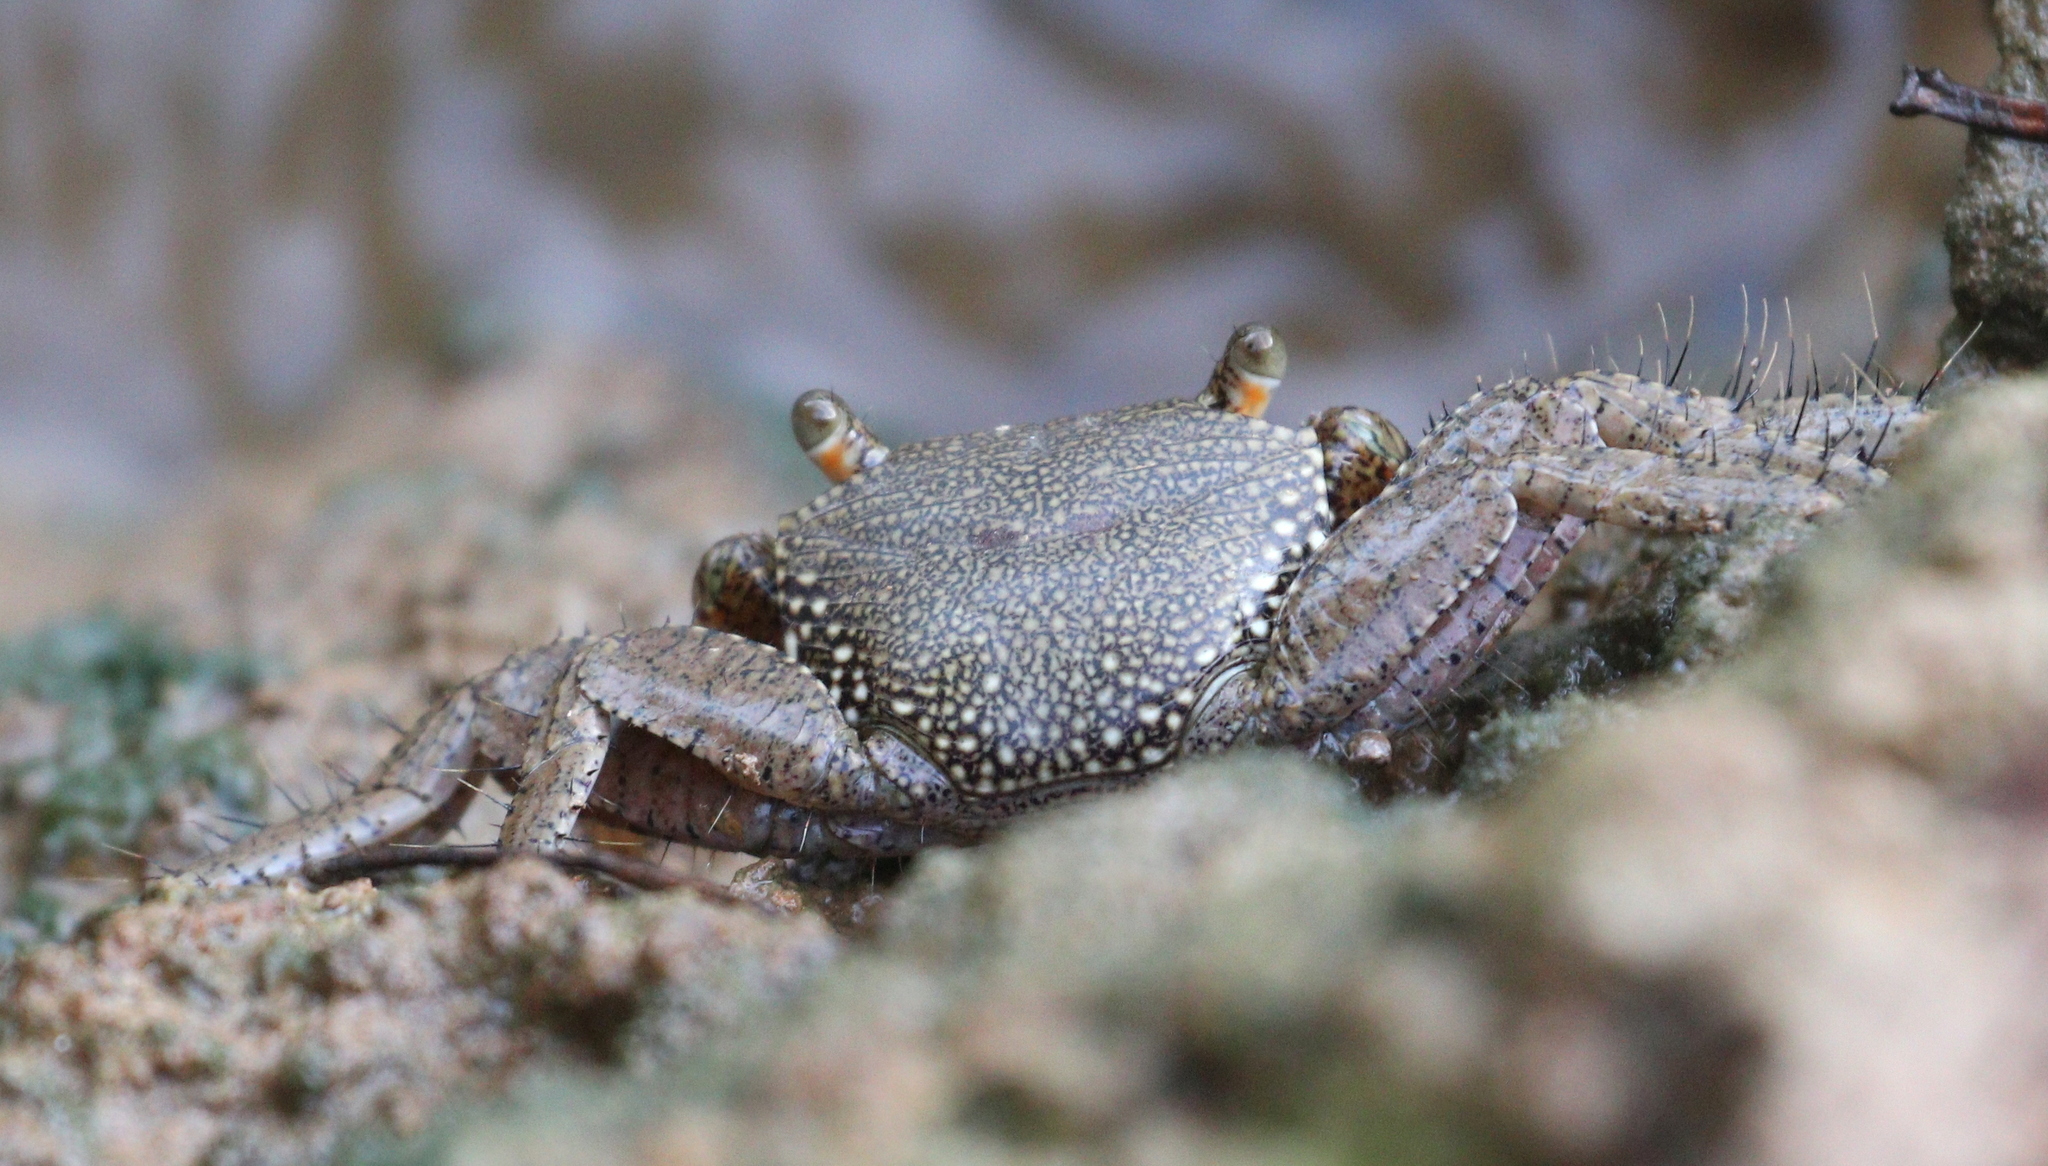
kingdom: Animalia
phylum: Arthropoda
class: Malacostraca
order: Decapoda
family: Grapsidae
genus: Goniopsis
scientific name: Goniopsis pulchra
